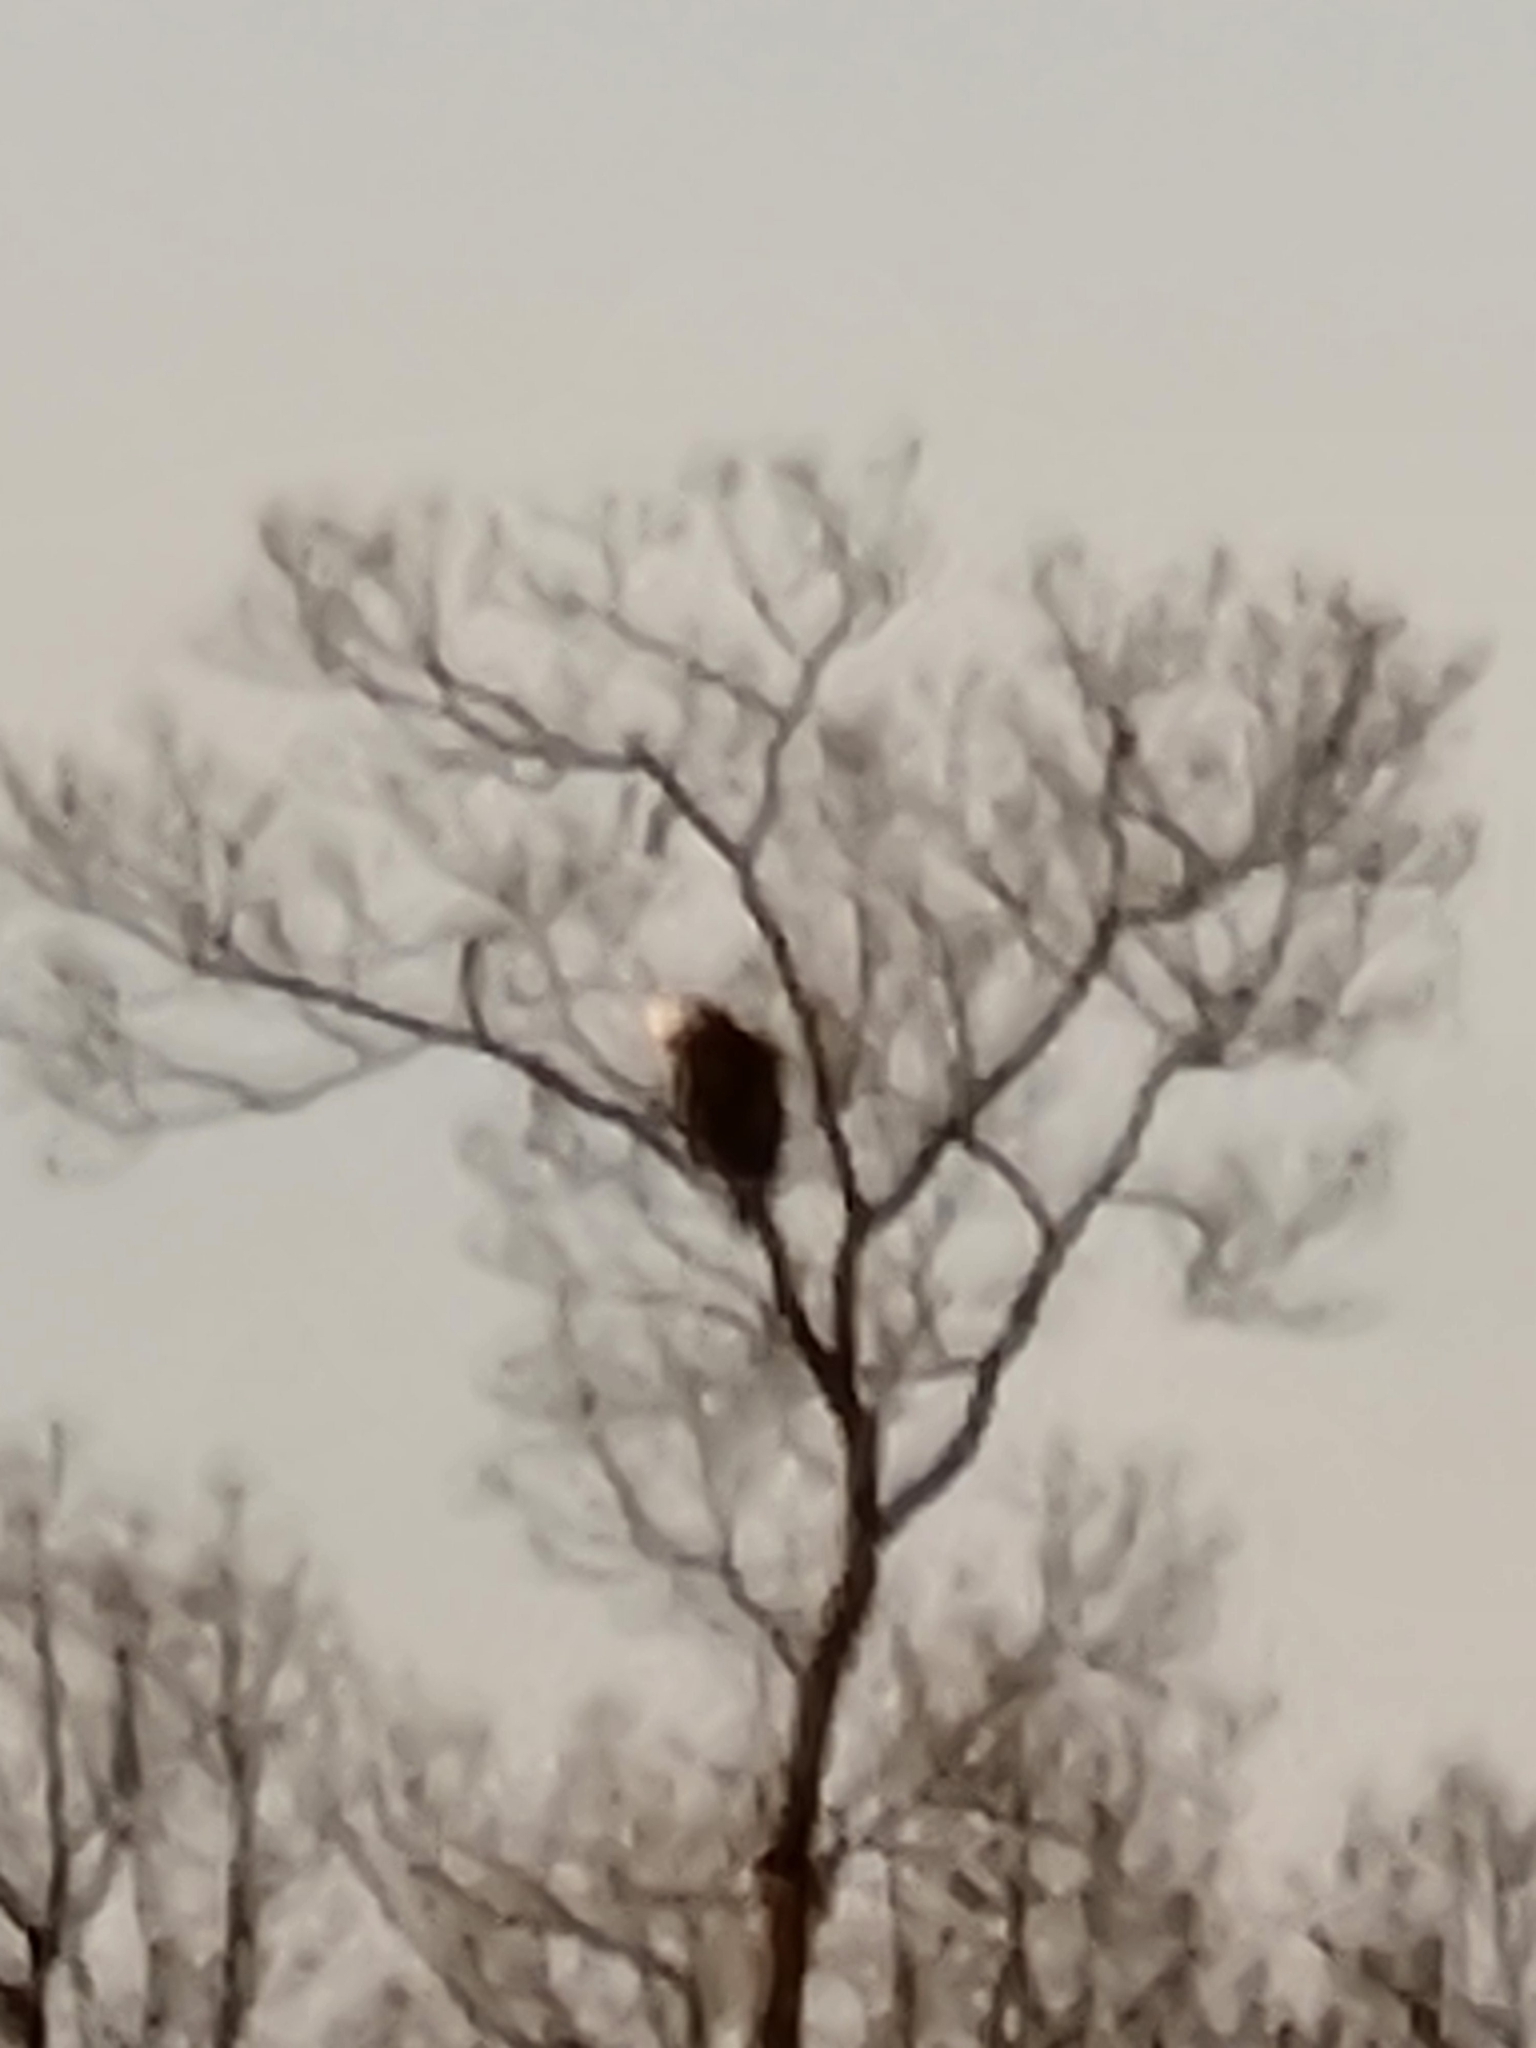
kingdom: Animalia
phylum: Chordata
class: Aves
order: Accipitriformes
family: Accipitridae
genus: Haliaeetus
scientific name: Haliaeetus leucocephalus
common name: Bald eagle
